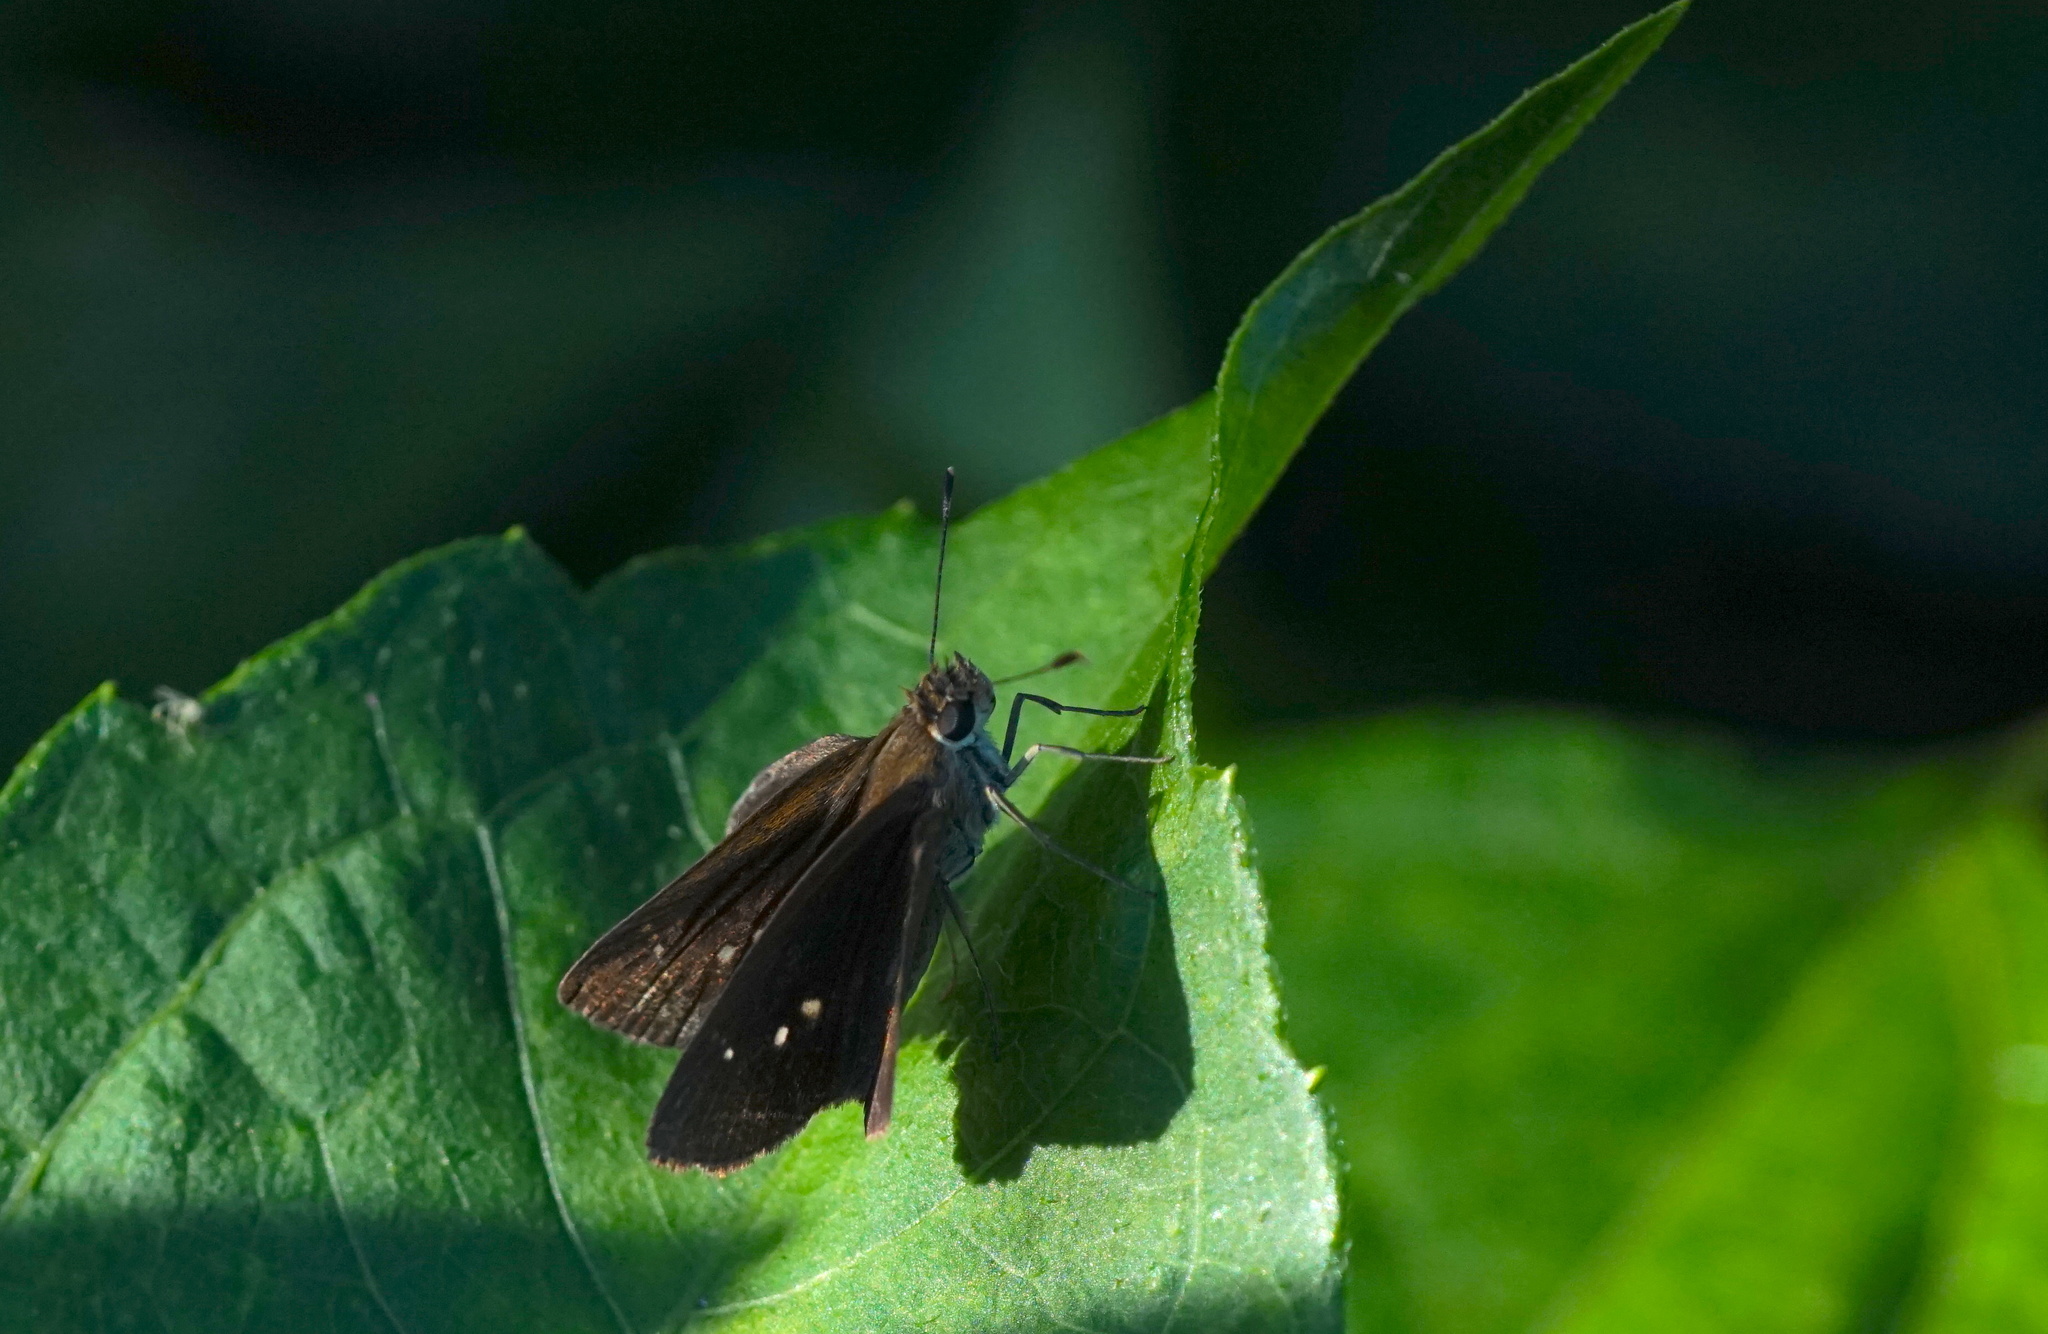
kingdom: Animalia
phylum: Arthropoda
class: Insecta
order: Lepidoptera
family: Hesperiidae
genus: Cymaenes
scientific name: Cymaenes tripunctus
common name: Dingy dotted skipper
